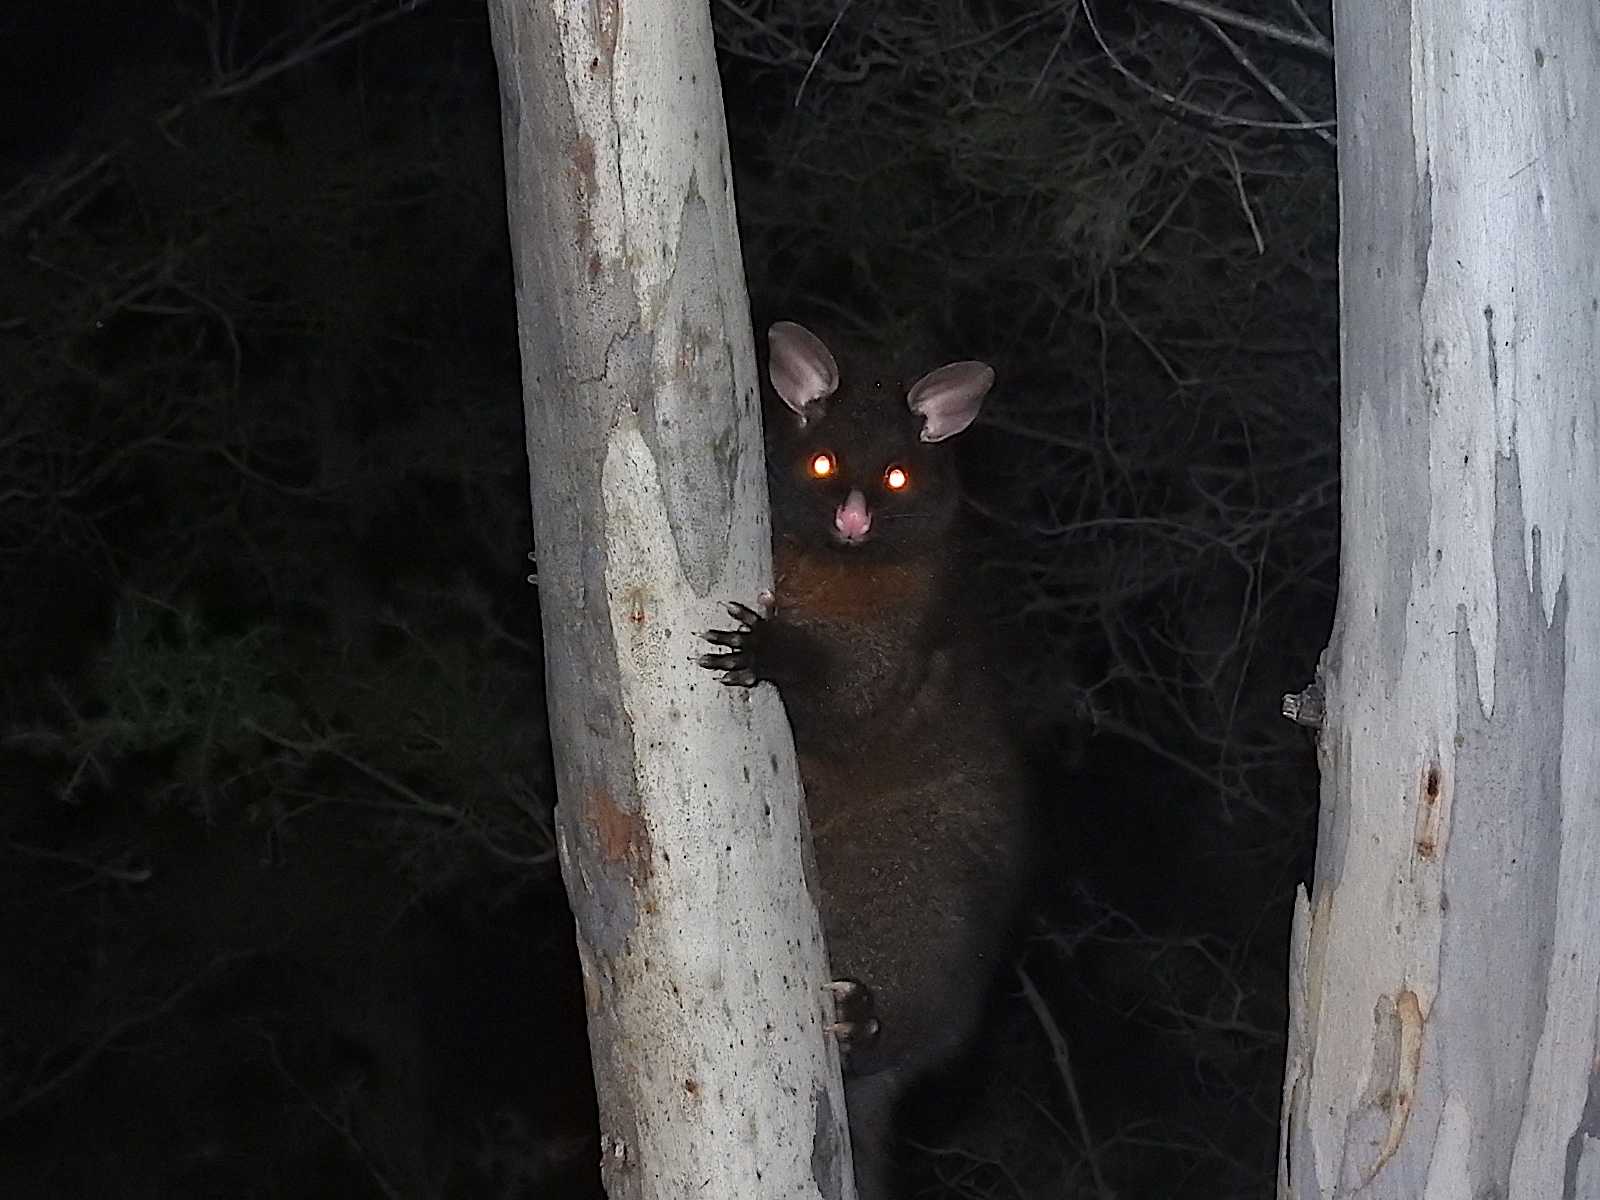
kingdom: Animalia
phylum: Chordata
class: Mammalia
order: Diprotodontia
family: Phalangeridae
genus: Trichosurus
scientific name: Trichosurus vulpecula
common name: Common brushtail
